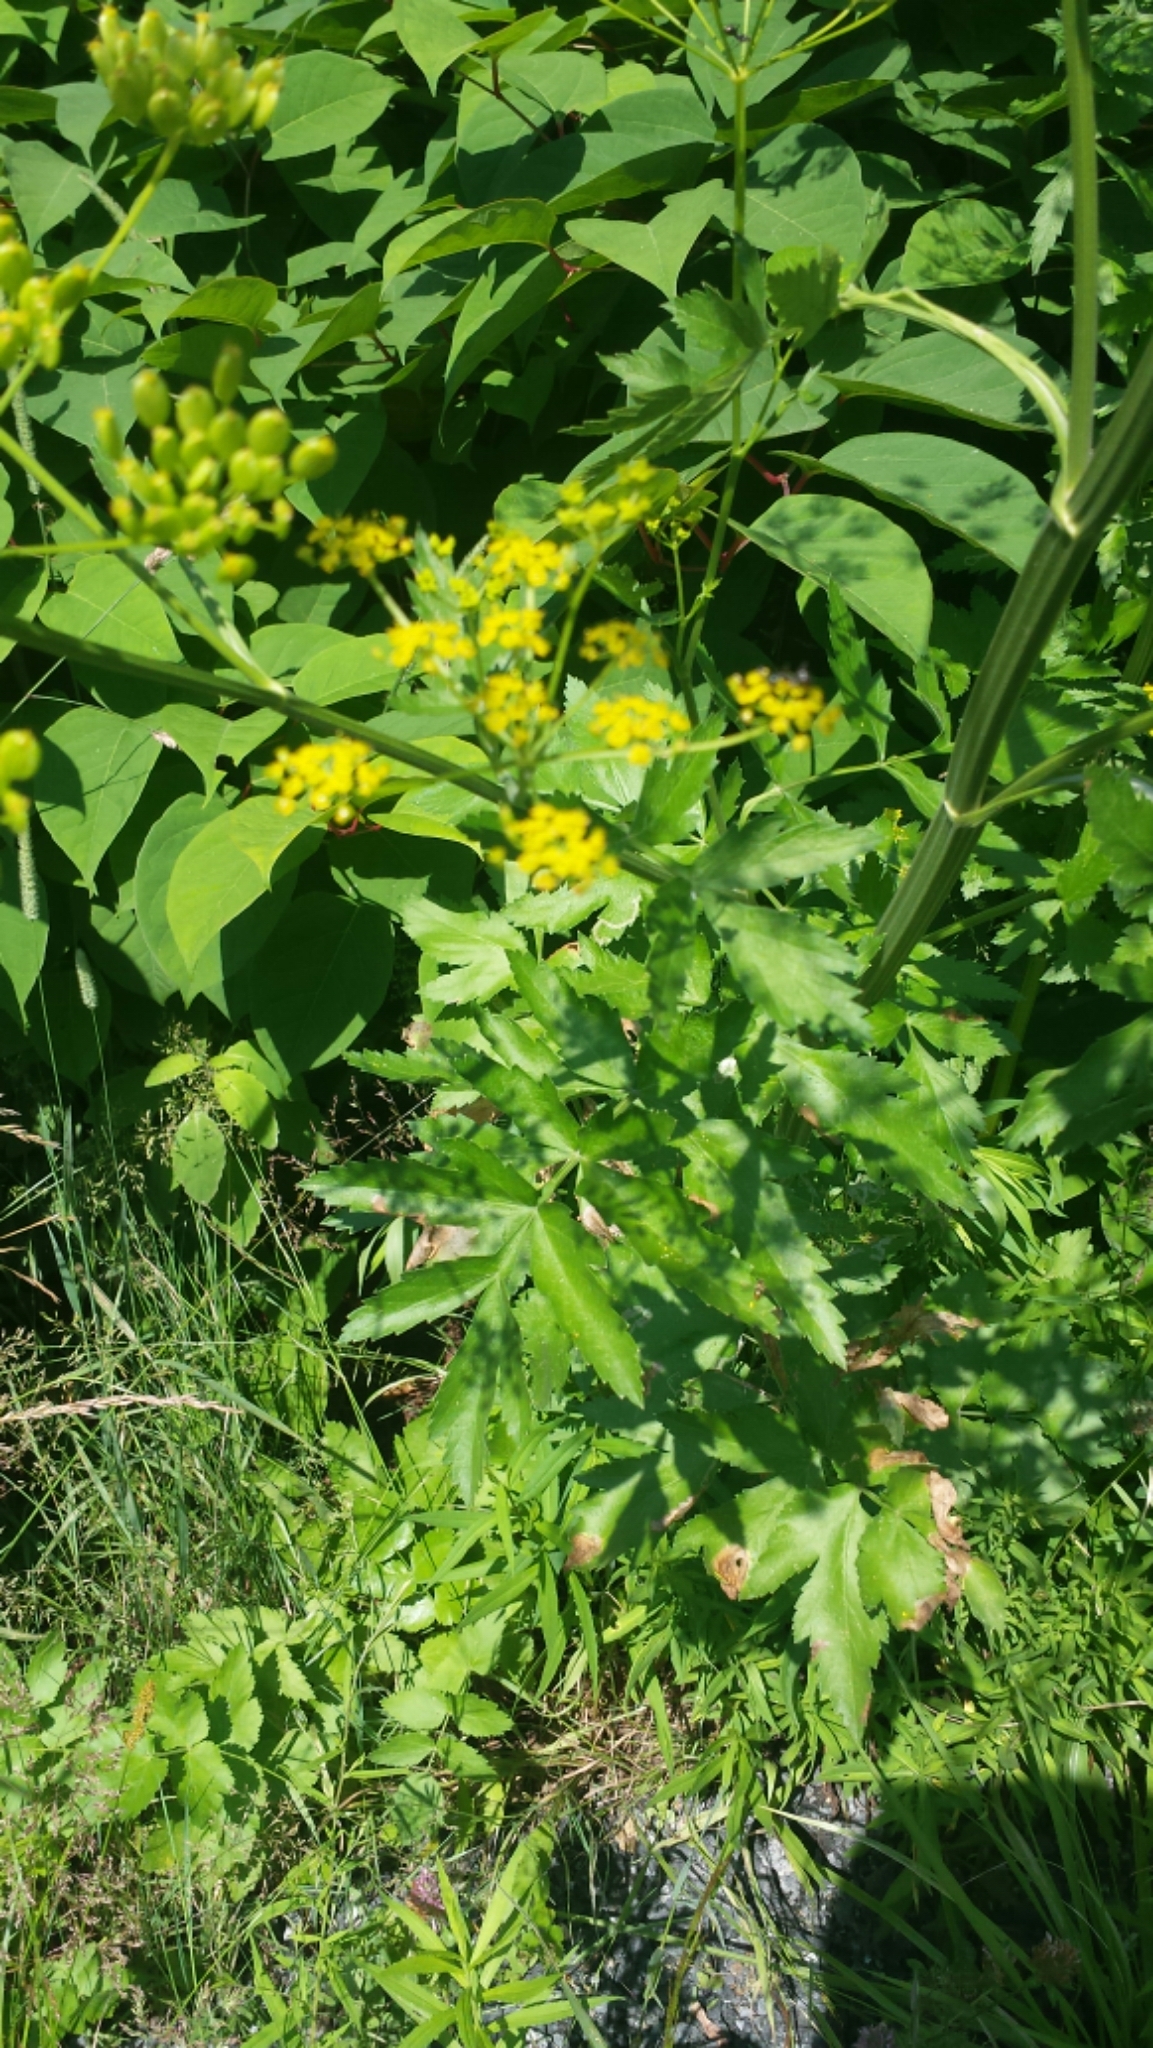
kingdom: Plantae
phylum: Tracheophyta
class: Magnoliopsida
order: Apiales
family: Apiaceae
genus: Pastinaca
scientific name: Pastinaca sativa
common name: Wild parsnip
